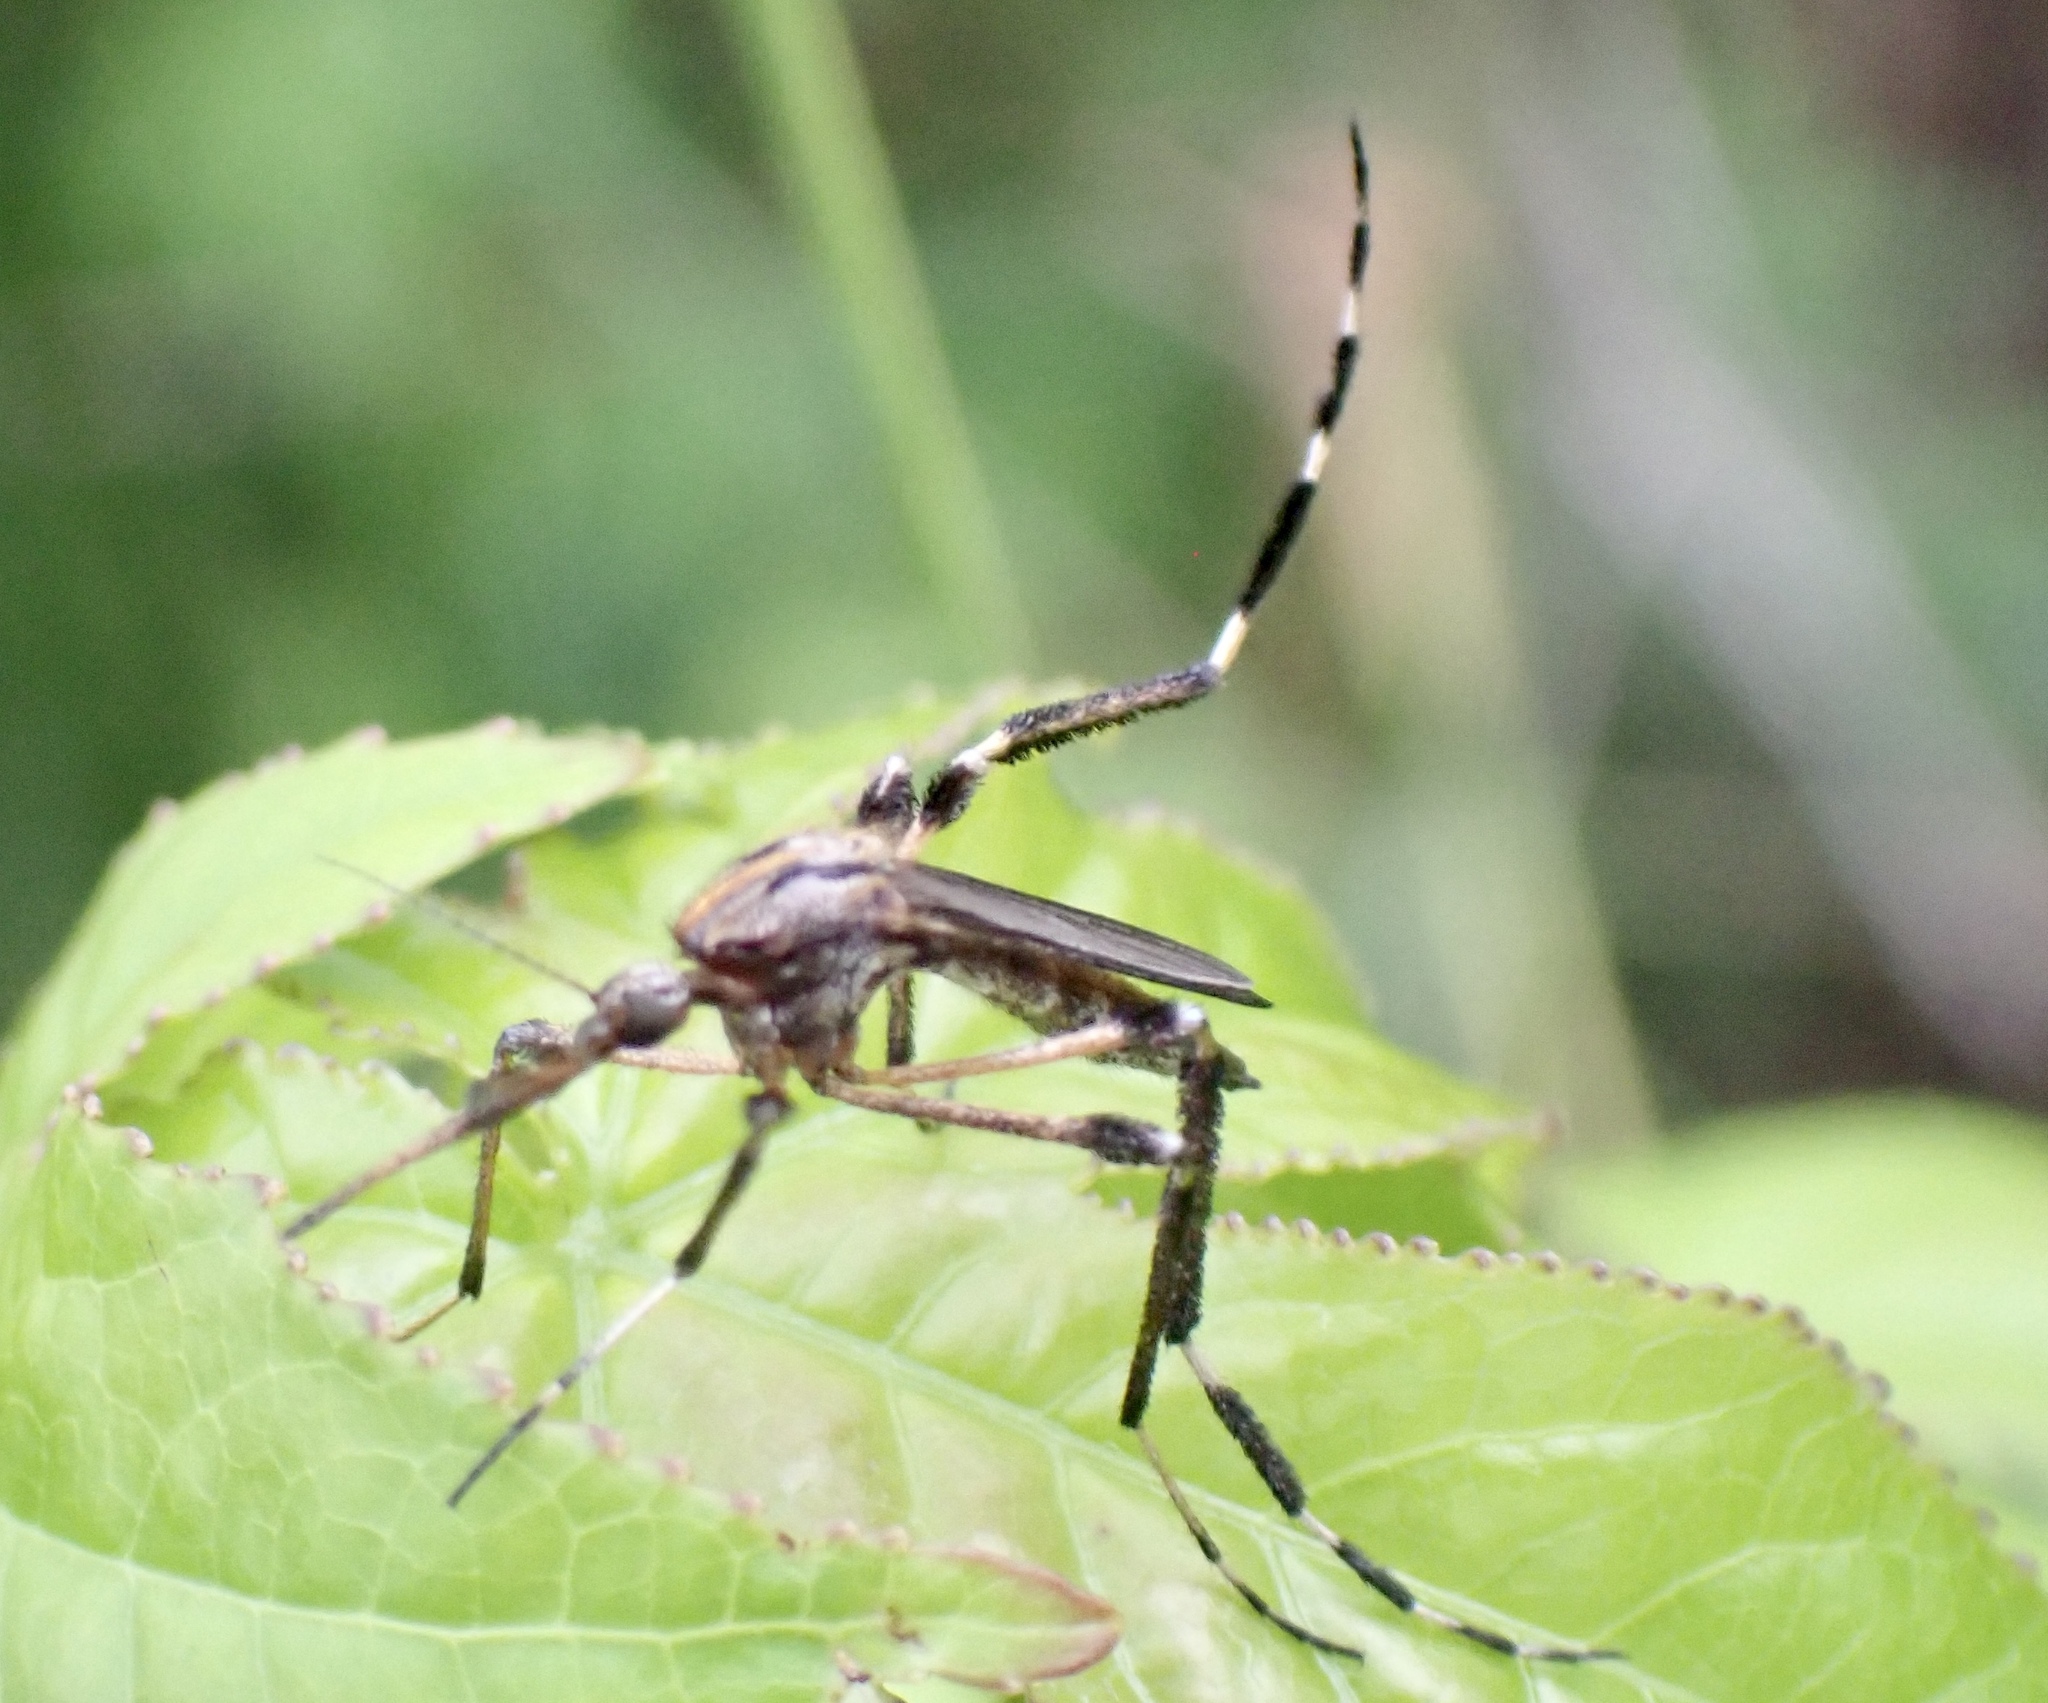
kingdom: Animalia
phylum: Arthropoda
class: Insecta
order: Diptera
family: Culicidae
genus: Psorophora
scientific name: Psorophora ciliata
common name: Gallinipper
